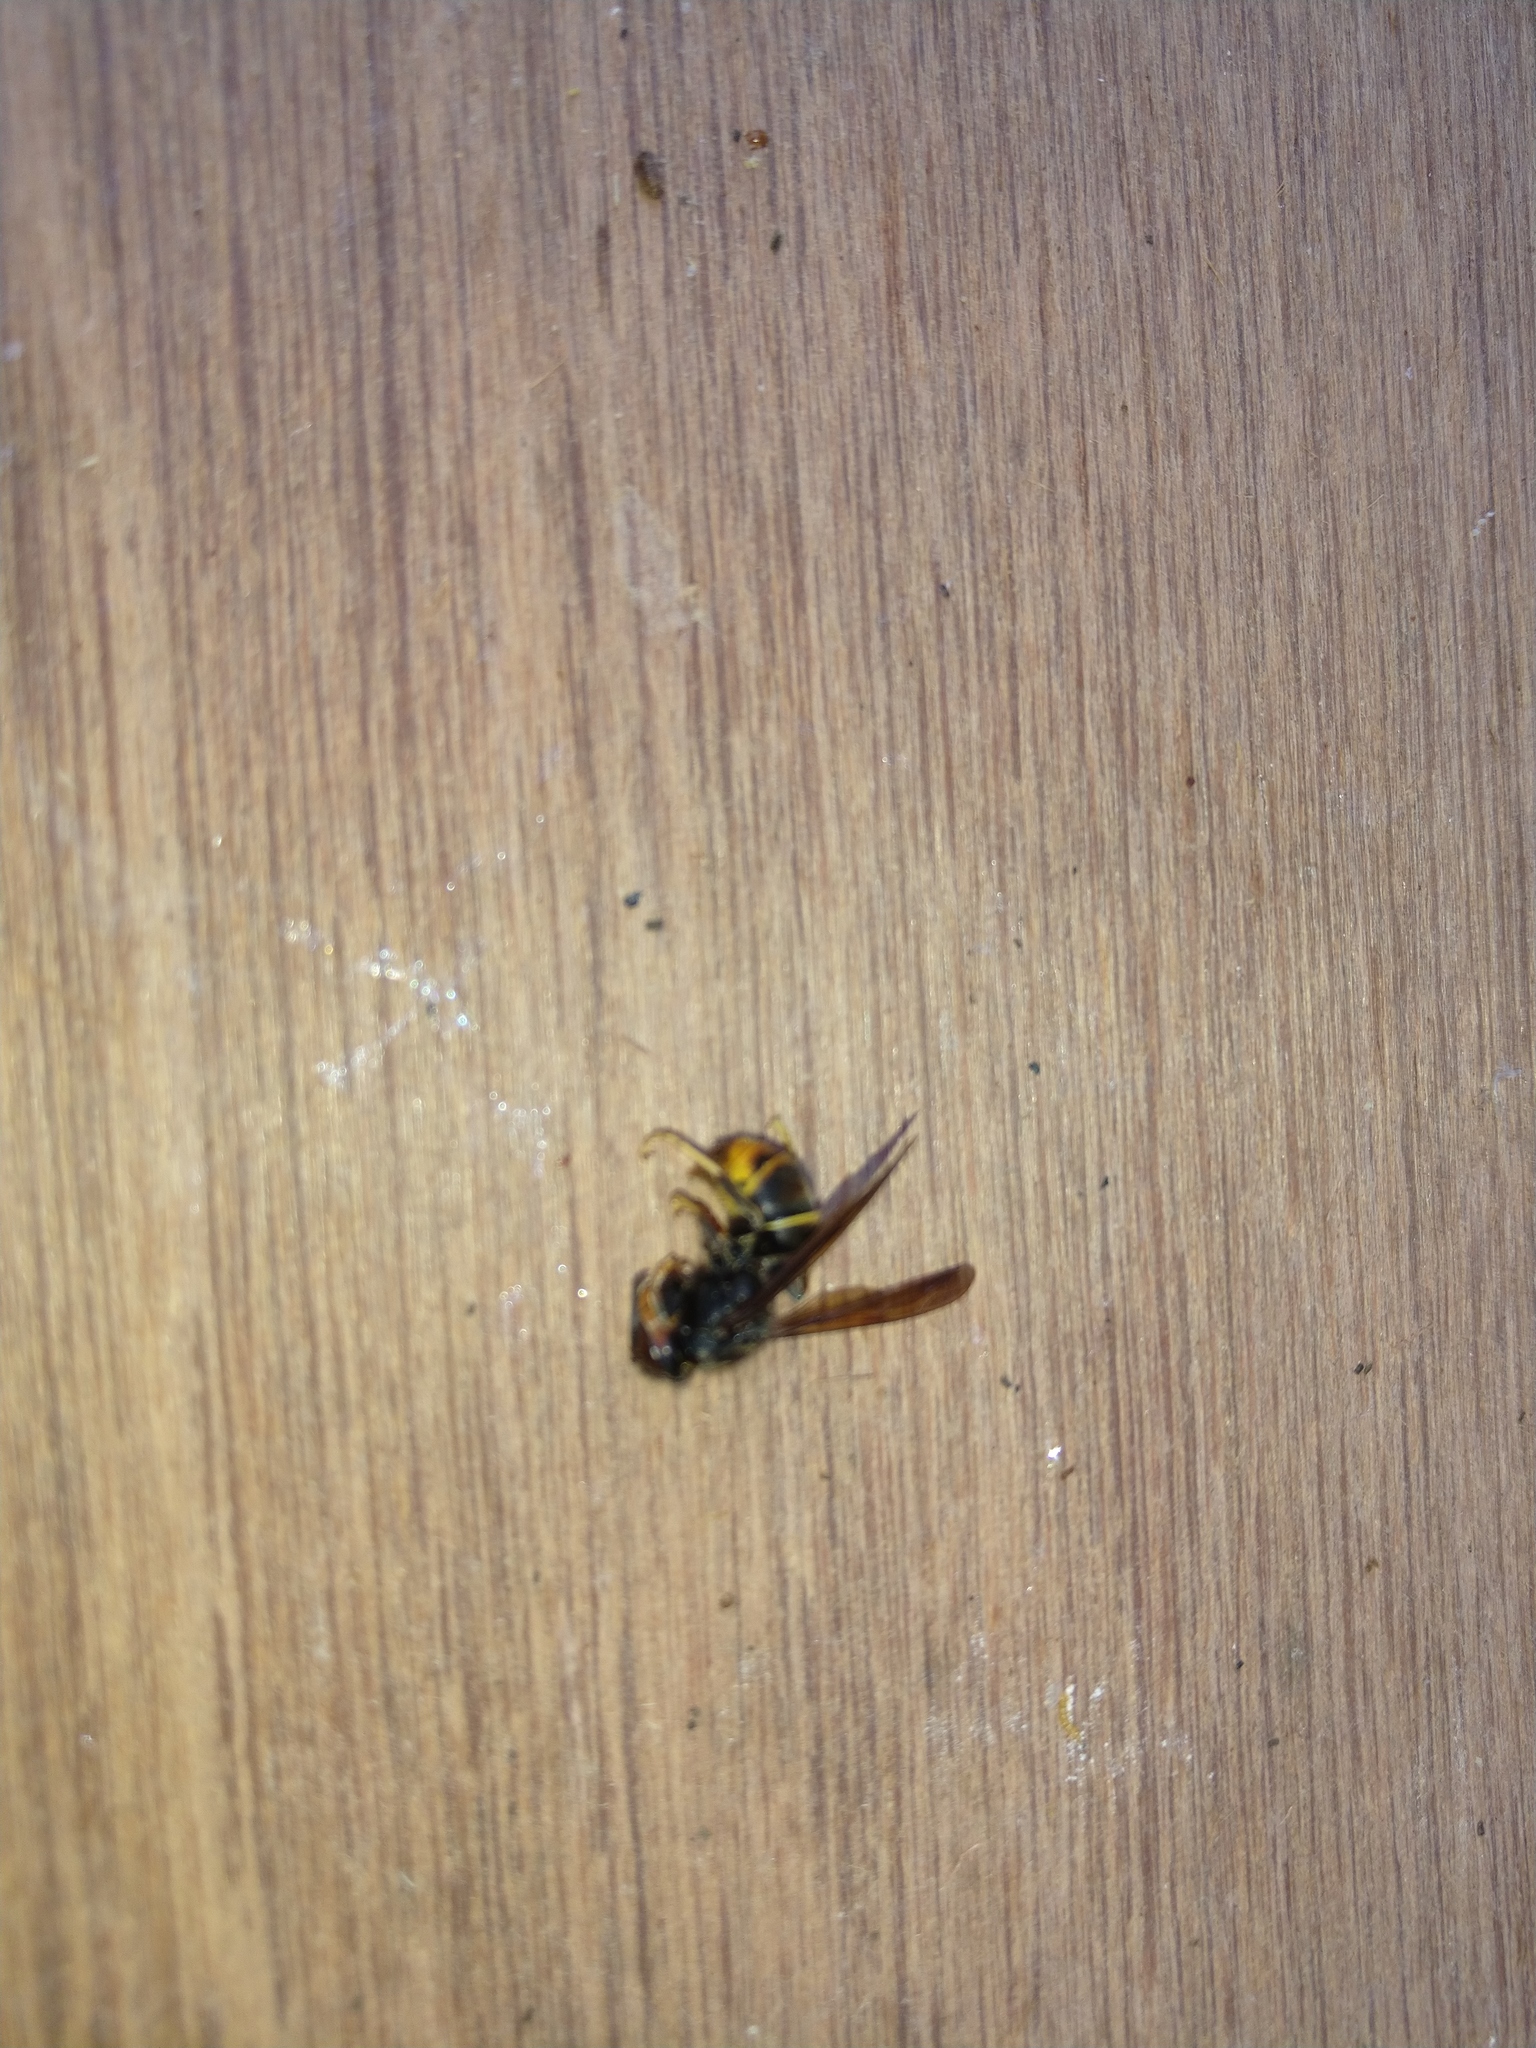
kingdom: Animalia
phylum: Arthropoda
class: Insecta
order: Hymenoptera
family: Vespidae
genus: Vespa
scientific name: Vespa velutina
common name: Asian hornet
